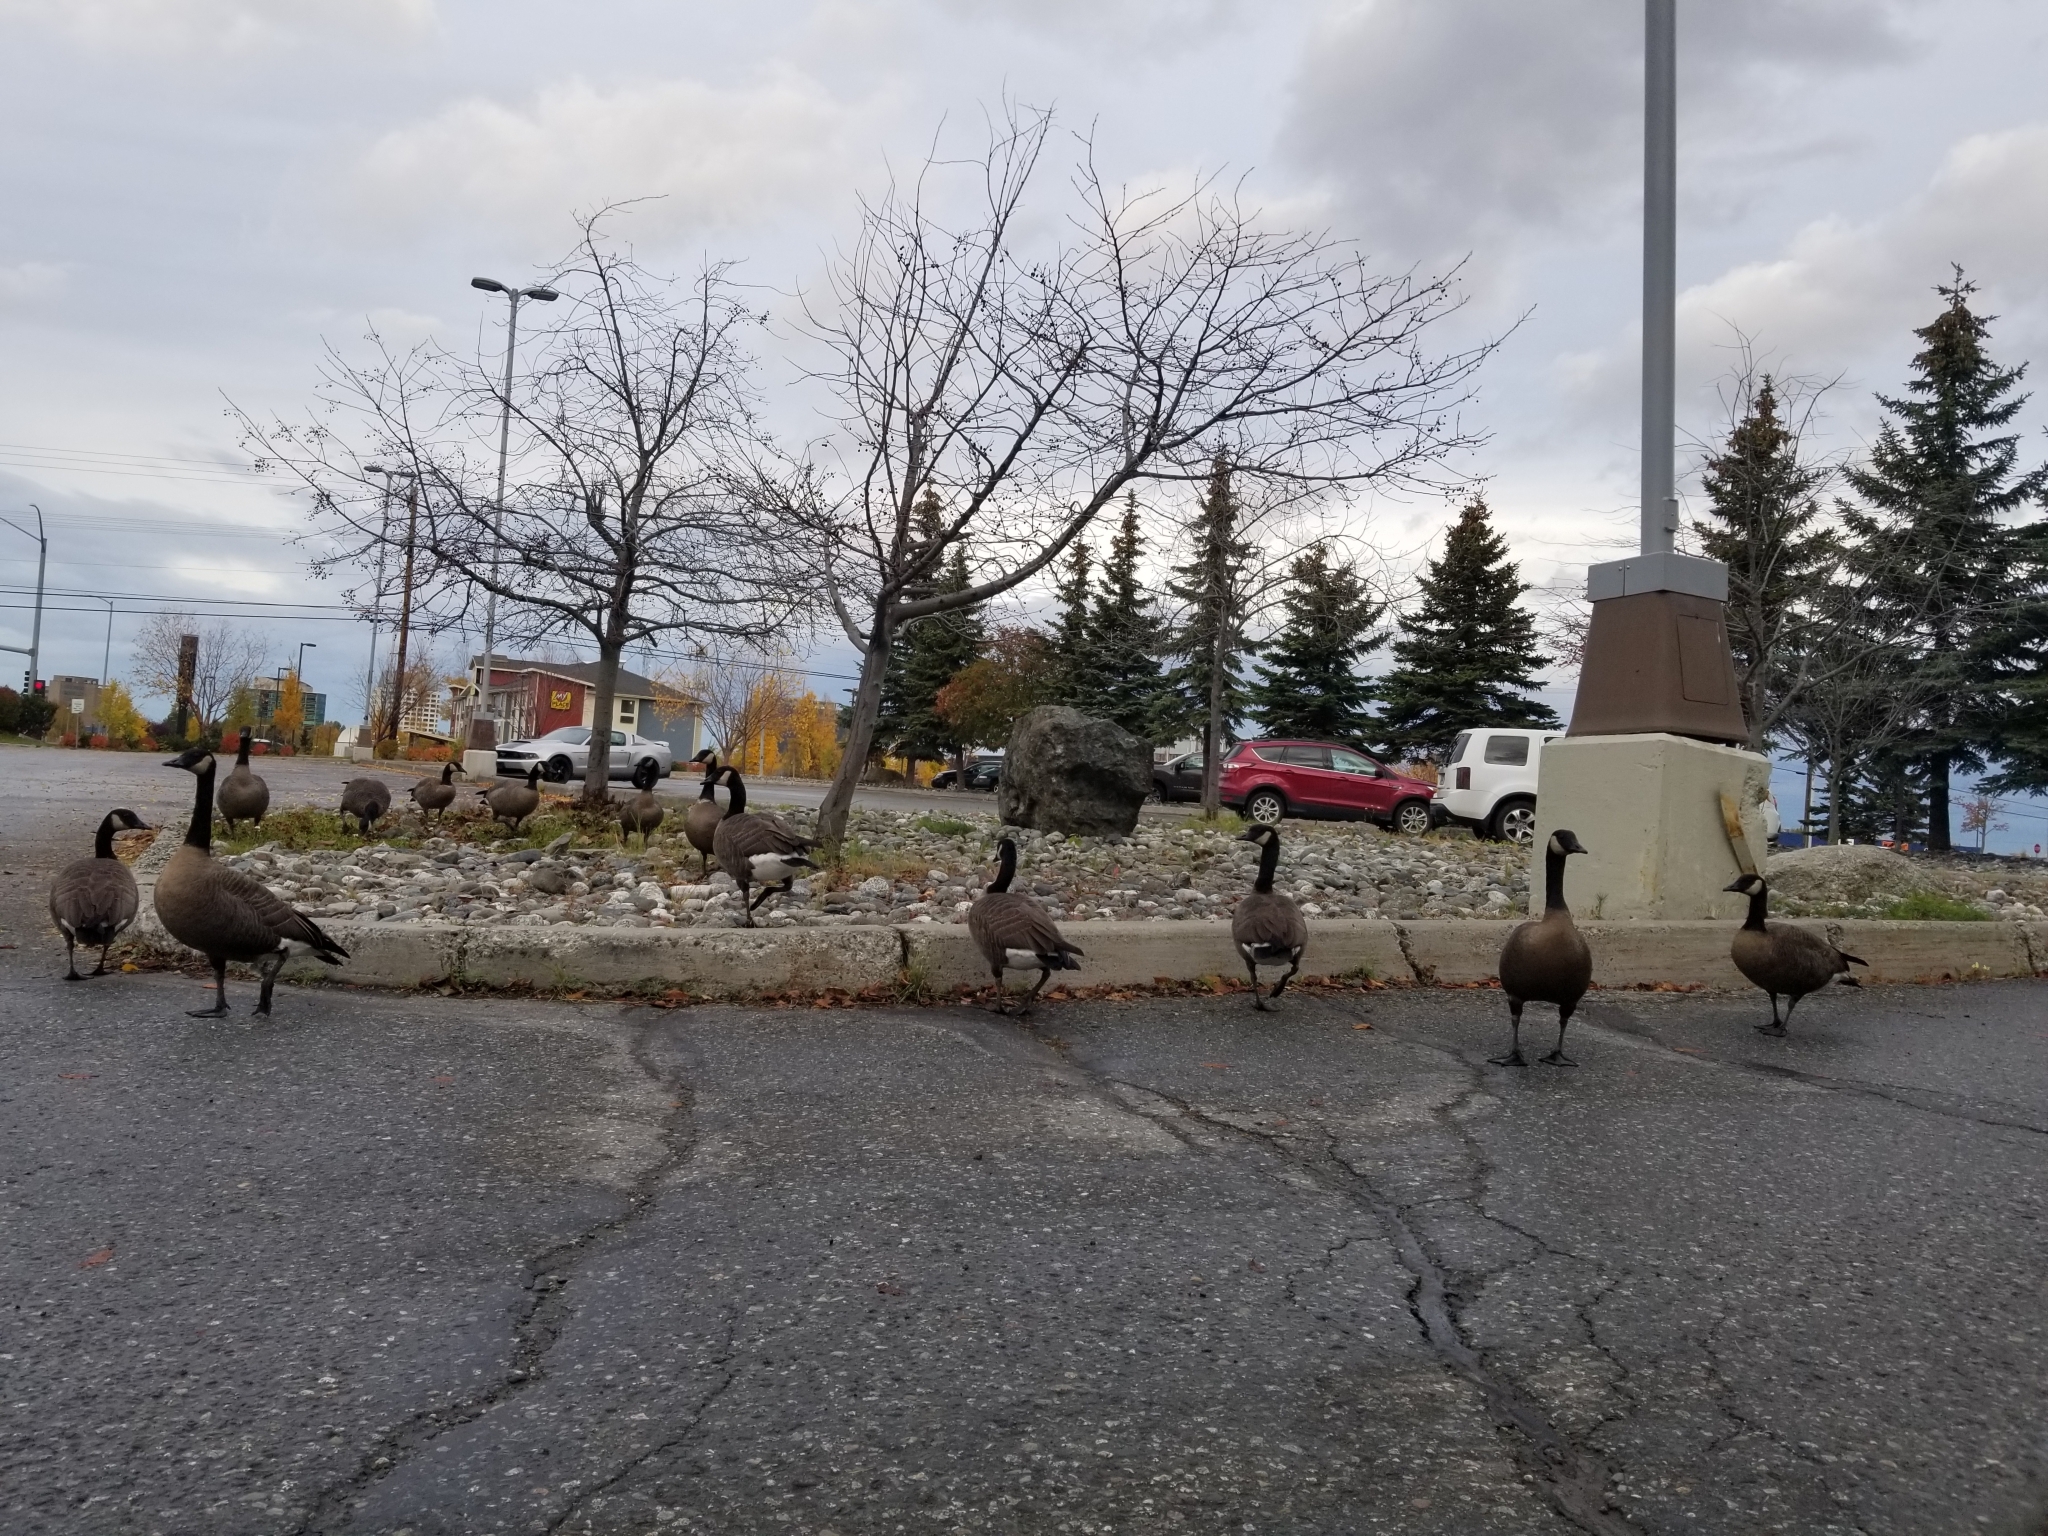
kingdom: Animalia
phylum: Chordata
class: Aves
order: Anseriformes
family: Anatidae
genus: Branta
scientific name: Branta canadensis
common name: Canada goose
